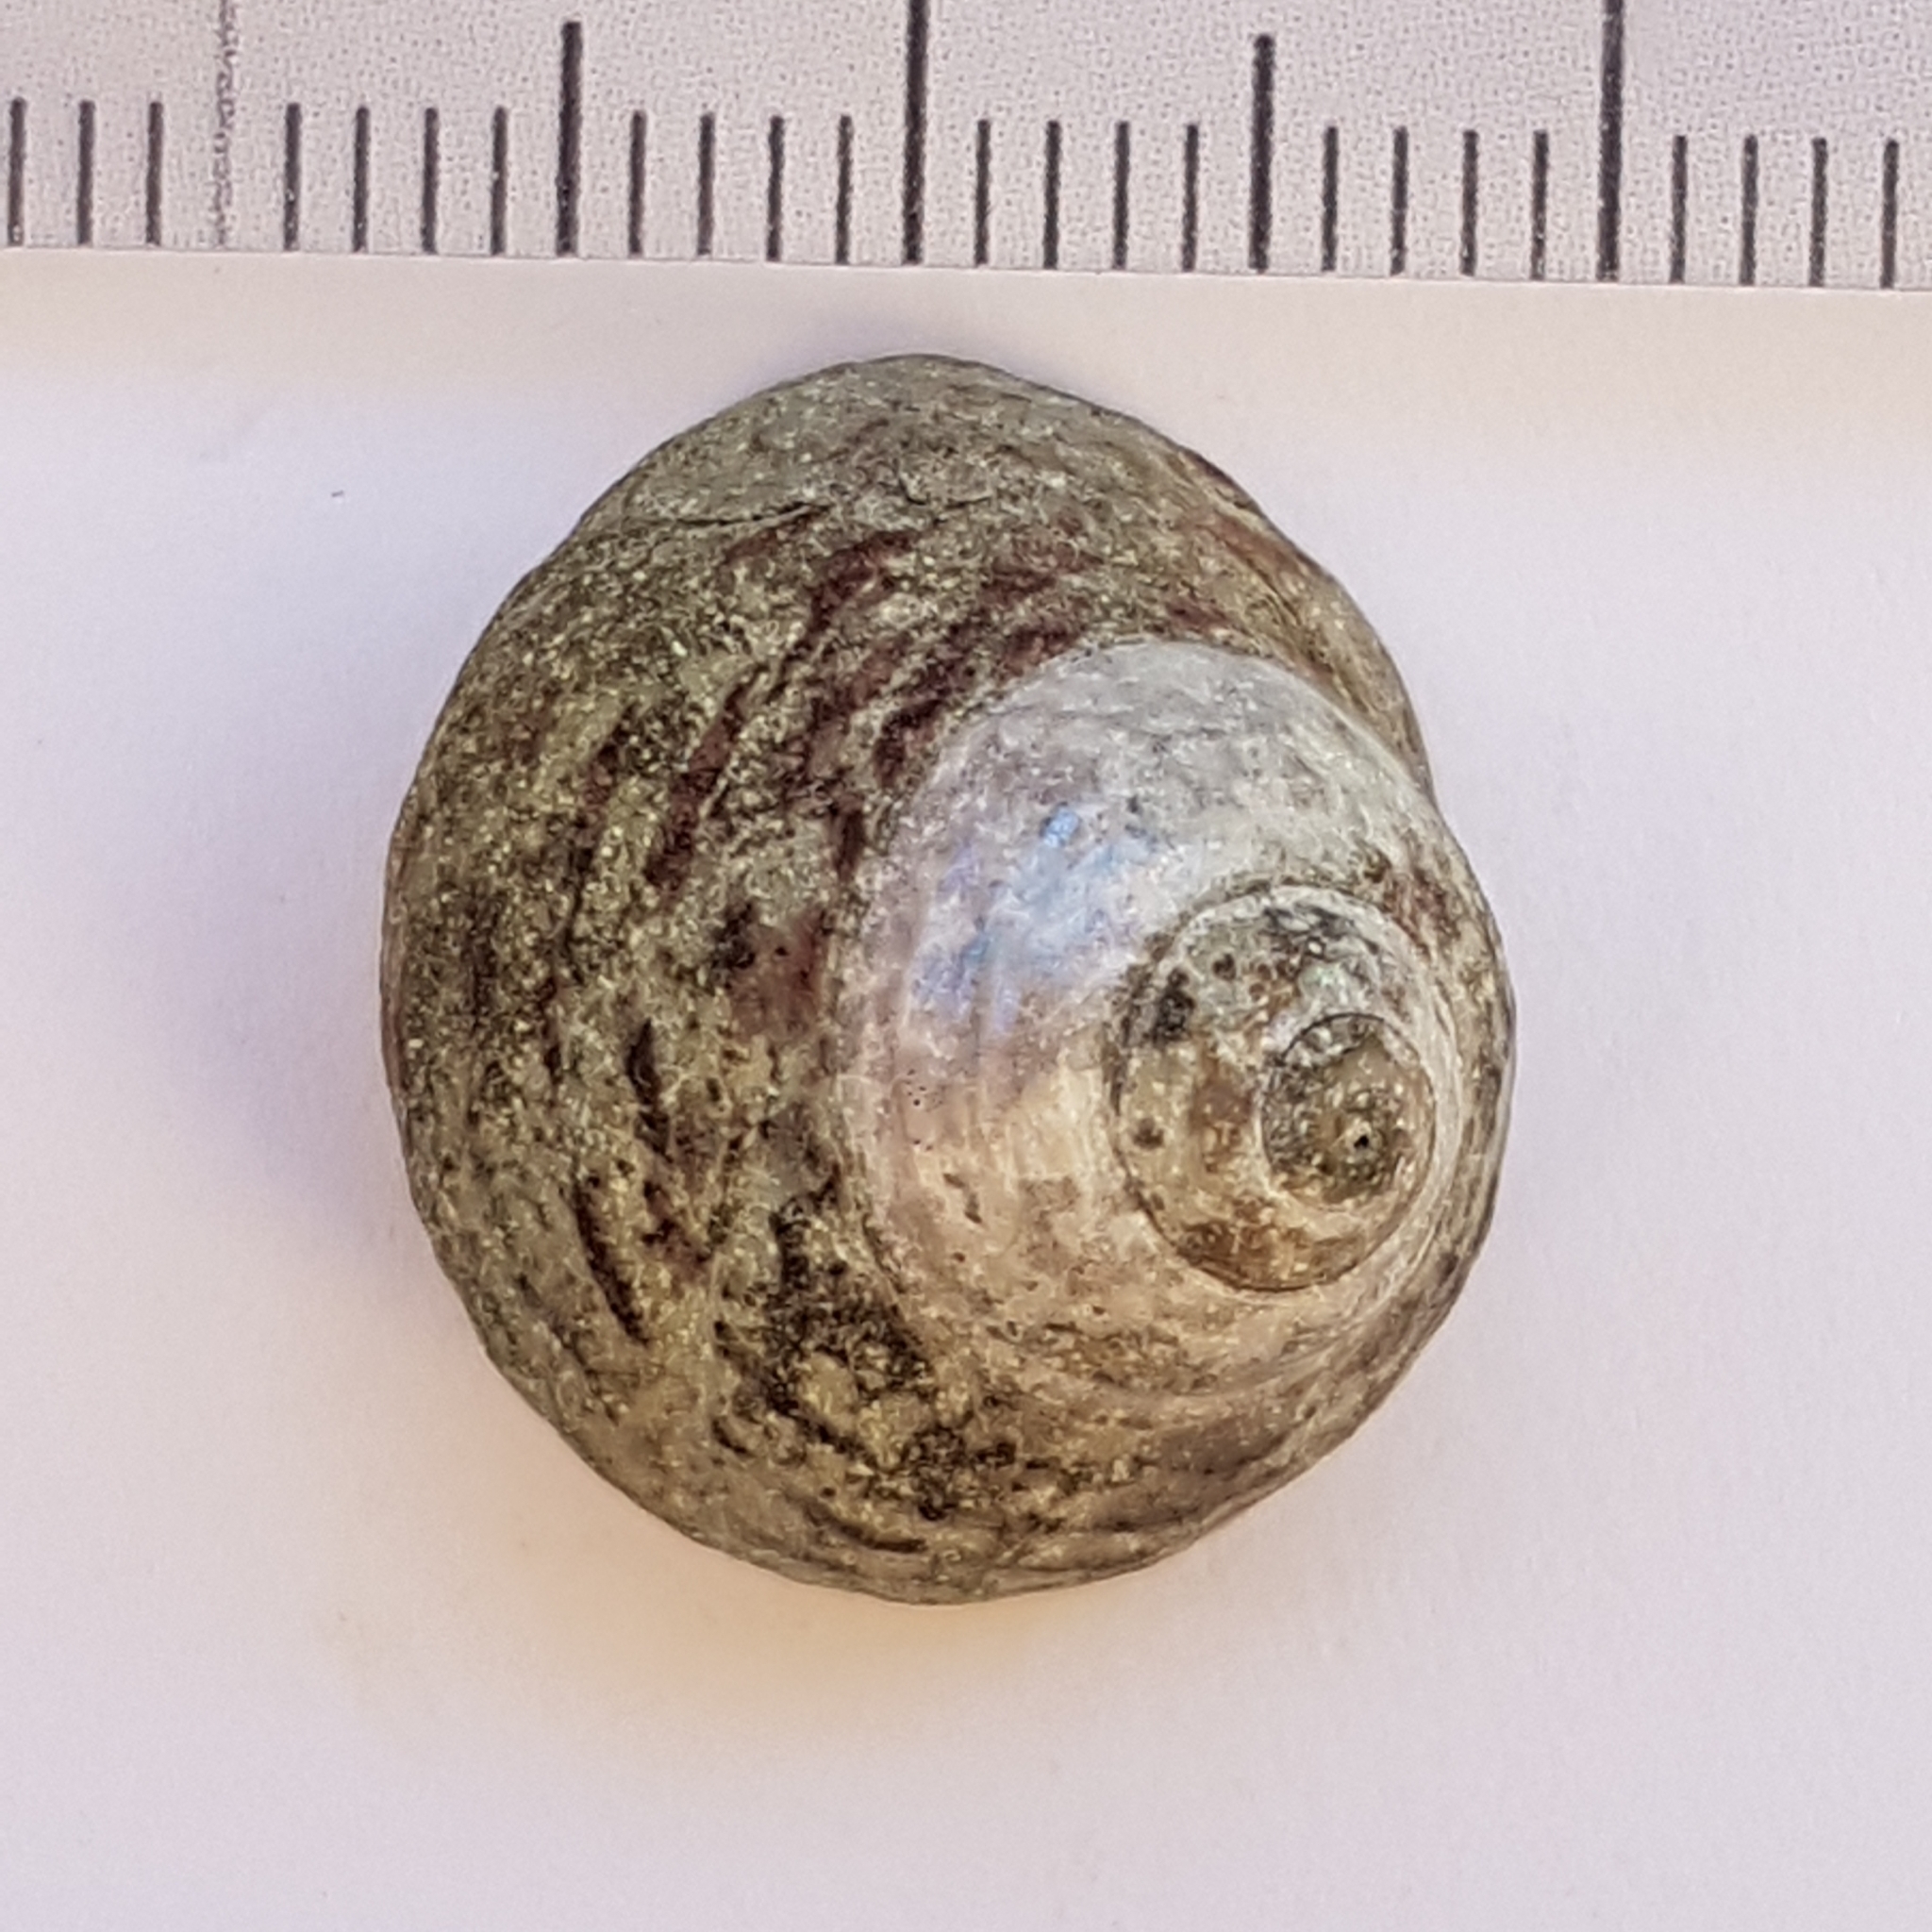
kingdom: Animalia
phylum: Mollusca
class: Gastropoda
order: Trochida
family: Trochidae
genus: Phorcus
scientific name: Phorcus sauciatus
